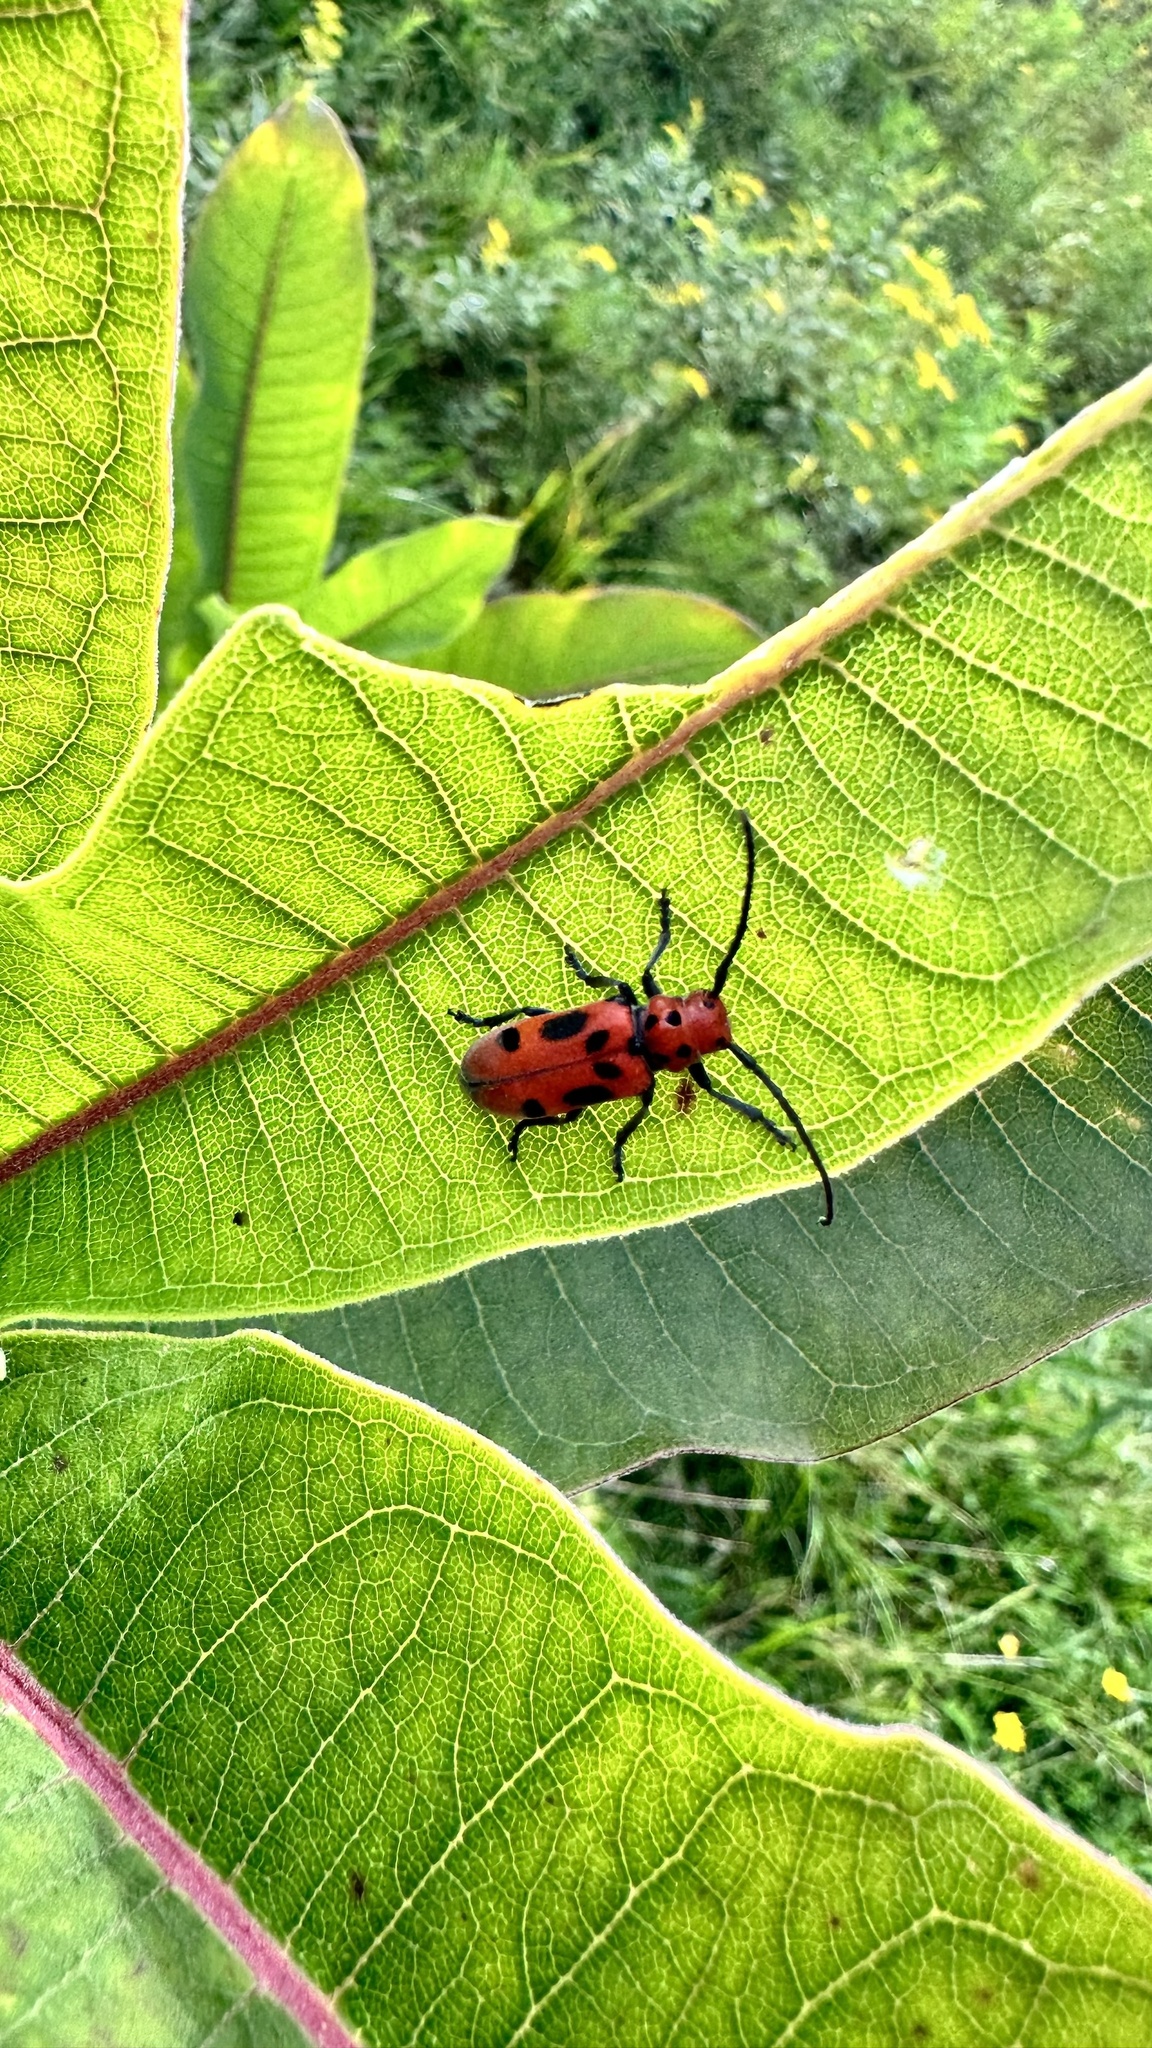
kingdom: Animalia
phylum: Arthropoda
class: Insecta
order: Coleoptera
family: Cerambycidae
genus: Tetraopes
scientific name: Tetraopes tetrophthalmus
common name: Red milkweed beetle
